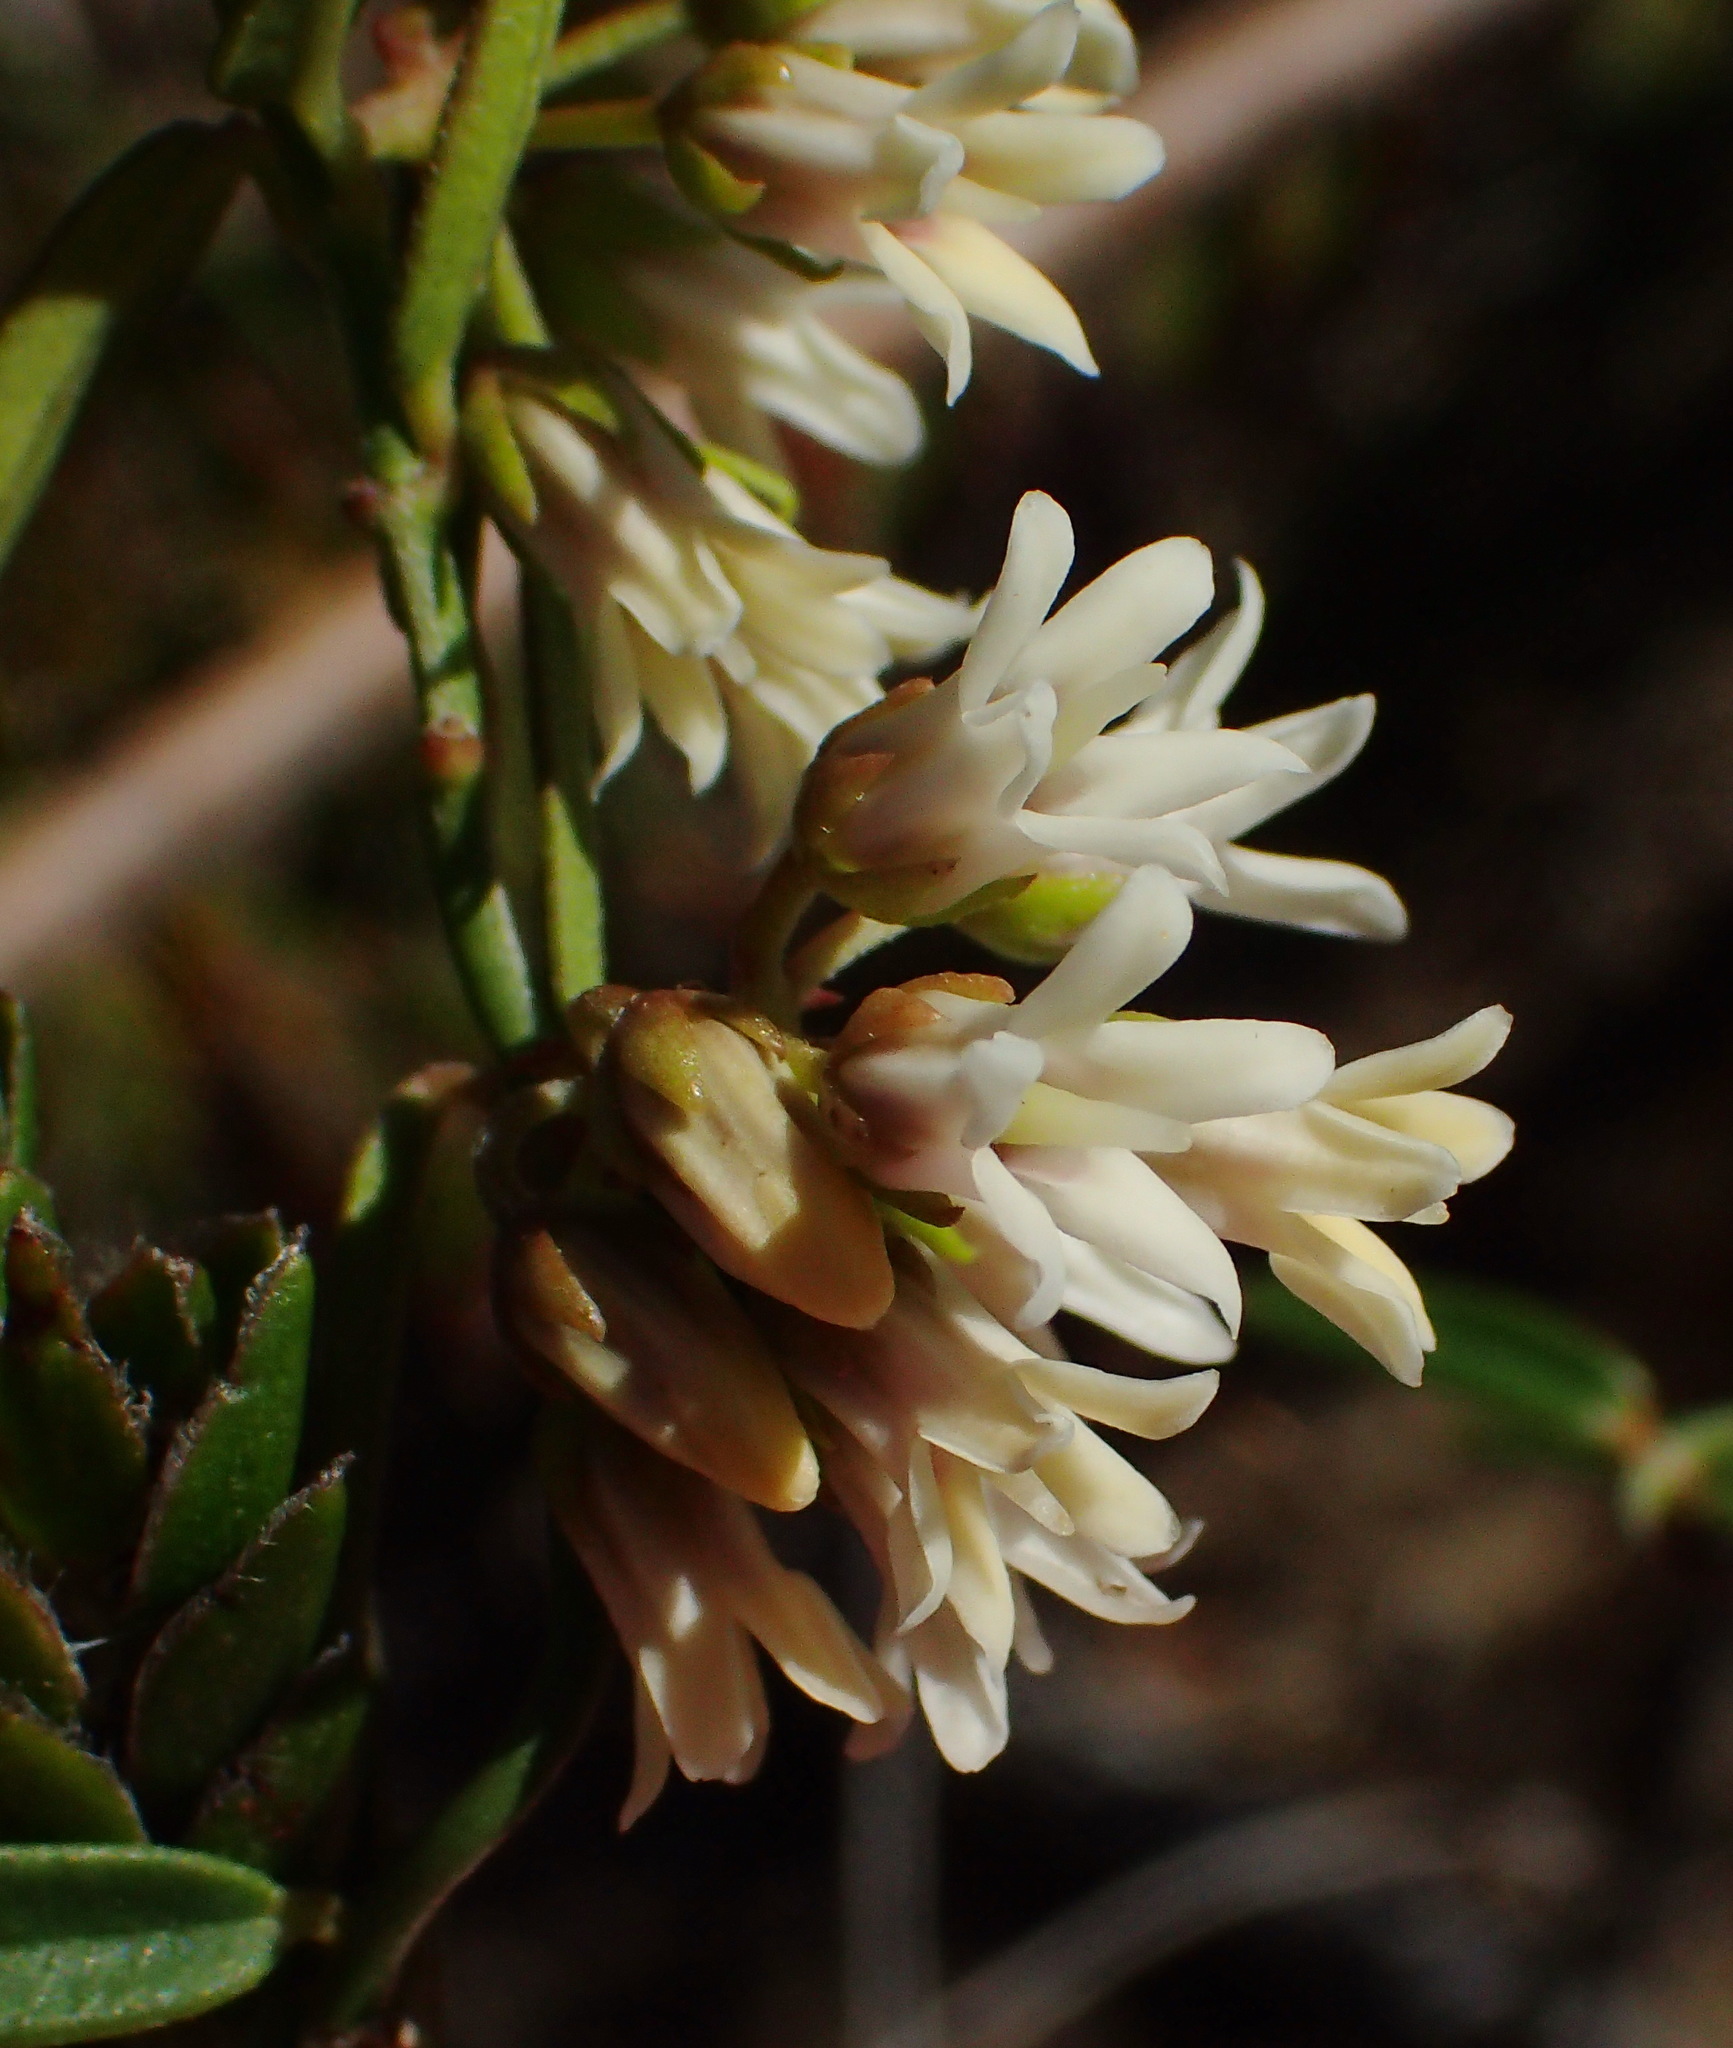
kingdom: Plantae
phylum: Tracheophyta
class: Magnoliopsida
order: Gentianales
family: Apocynaceae
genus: Astephanus
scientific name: Astephanus triflorus
